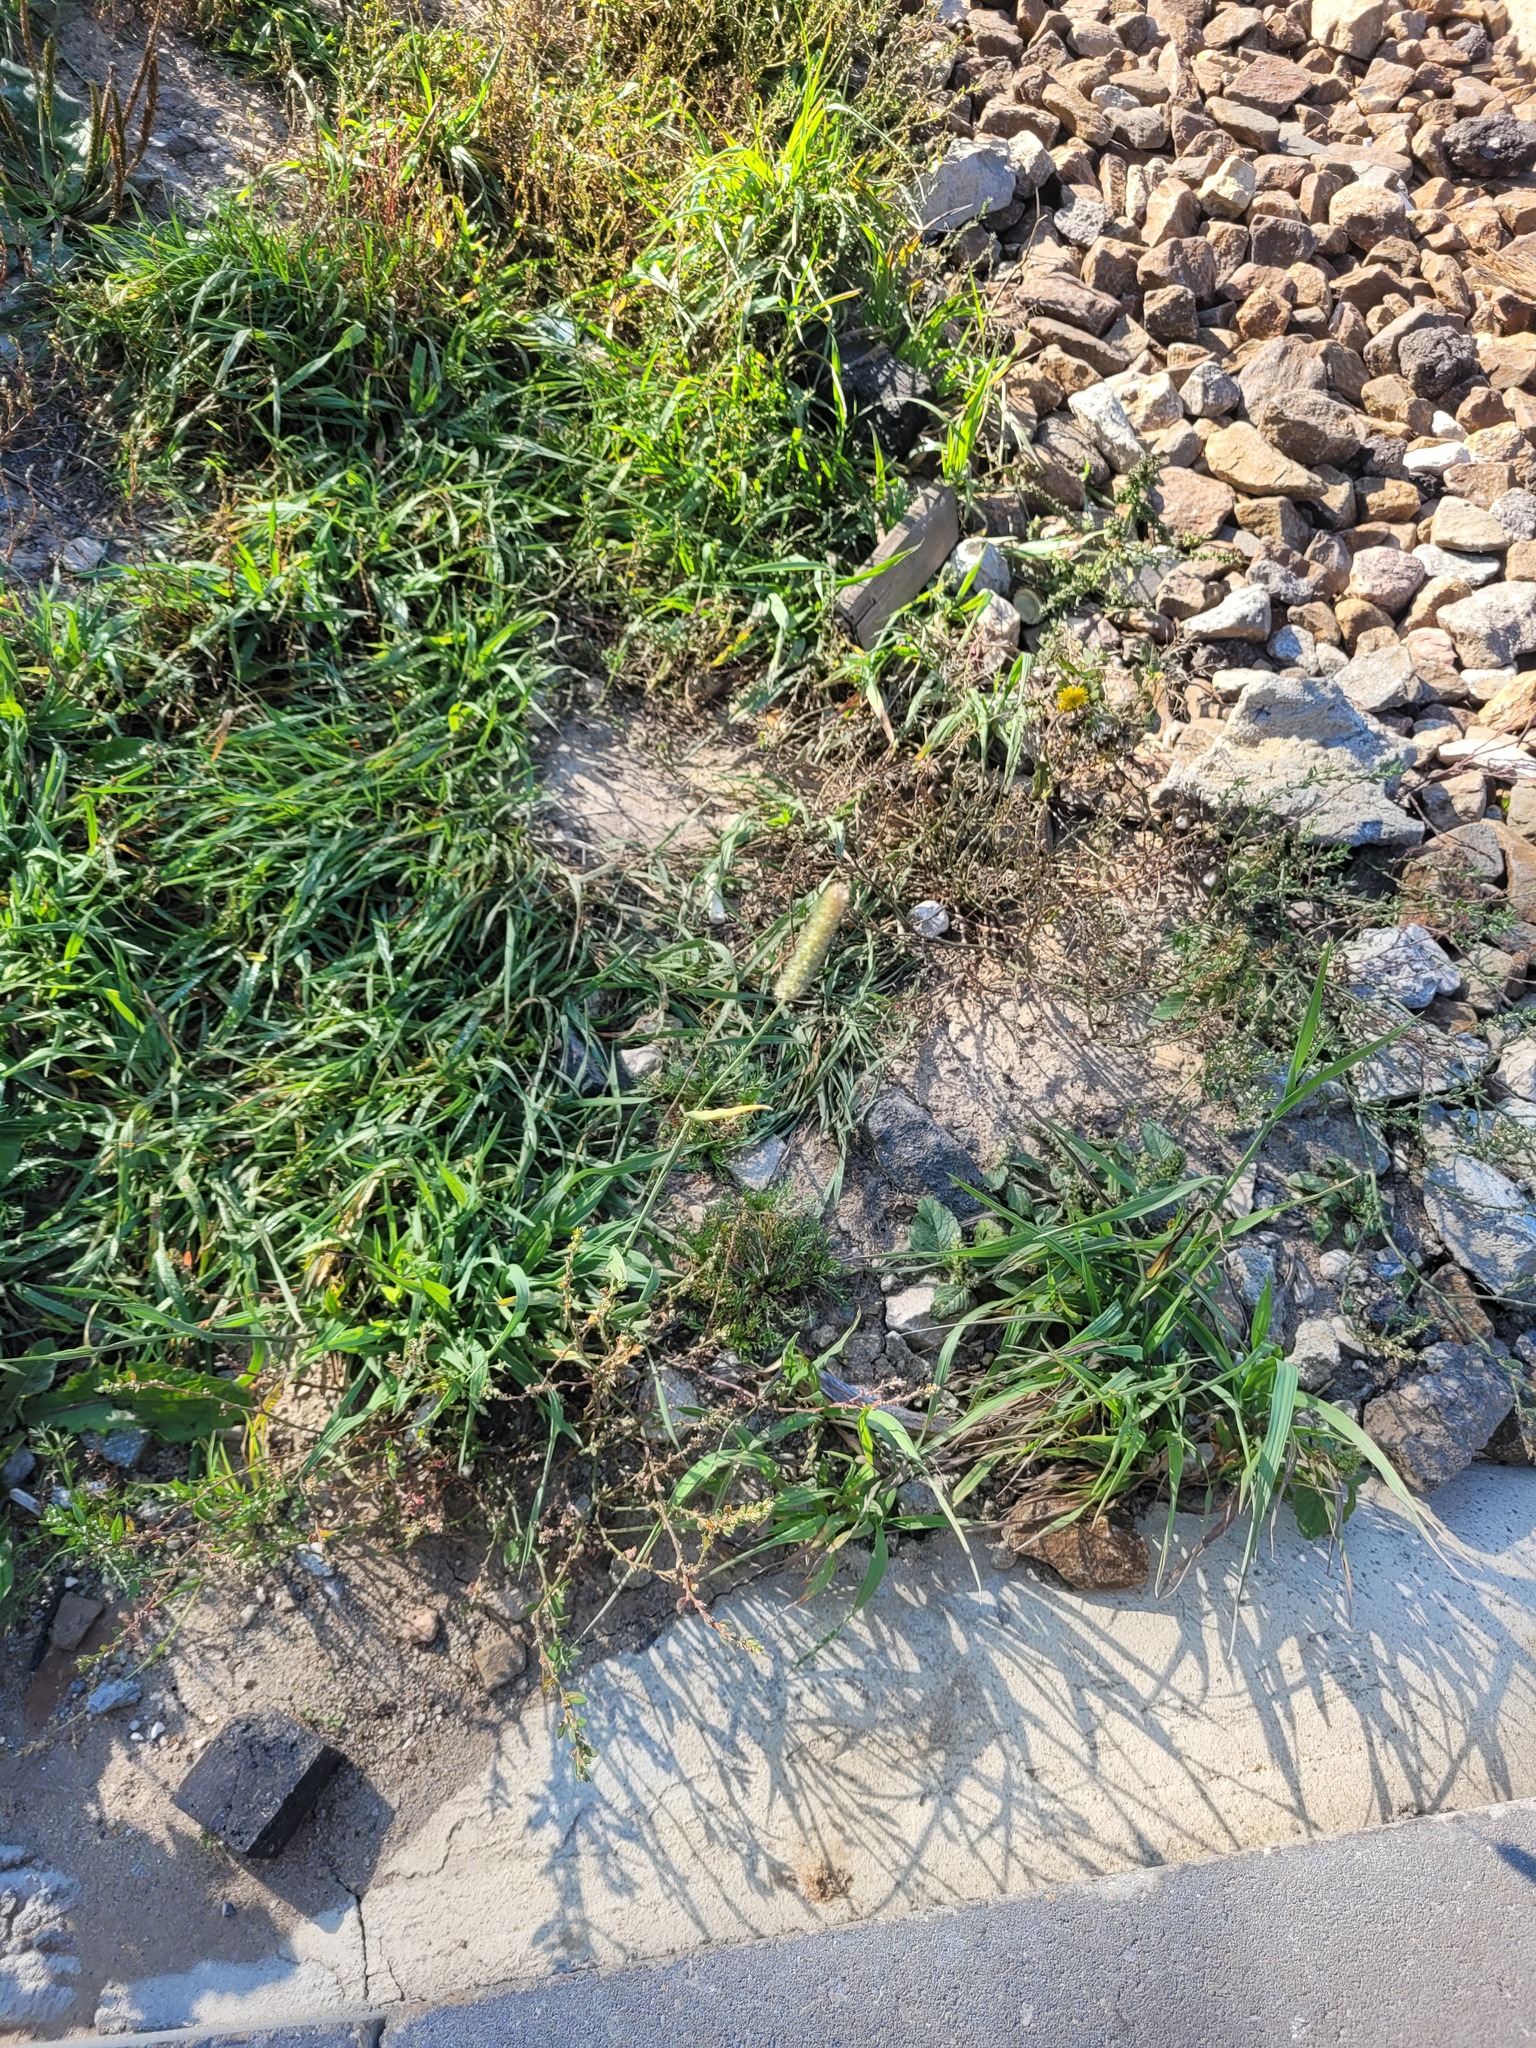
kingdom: Plantae
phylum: Tracheophyta
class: Liliopsida
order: Poales
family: Poaceae
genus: Phleum
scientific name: Phleum pratense
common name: Timothy grass
